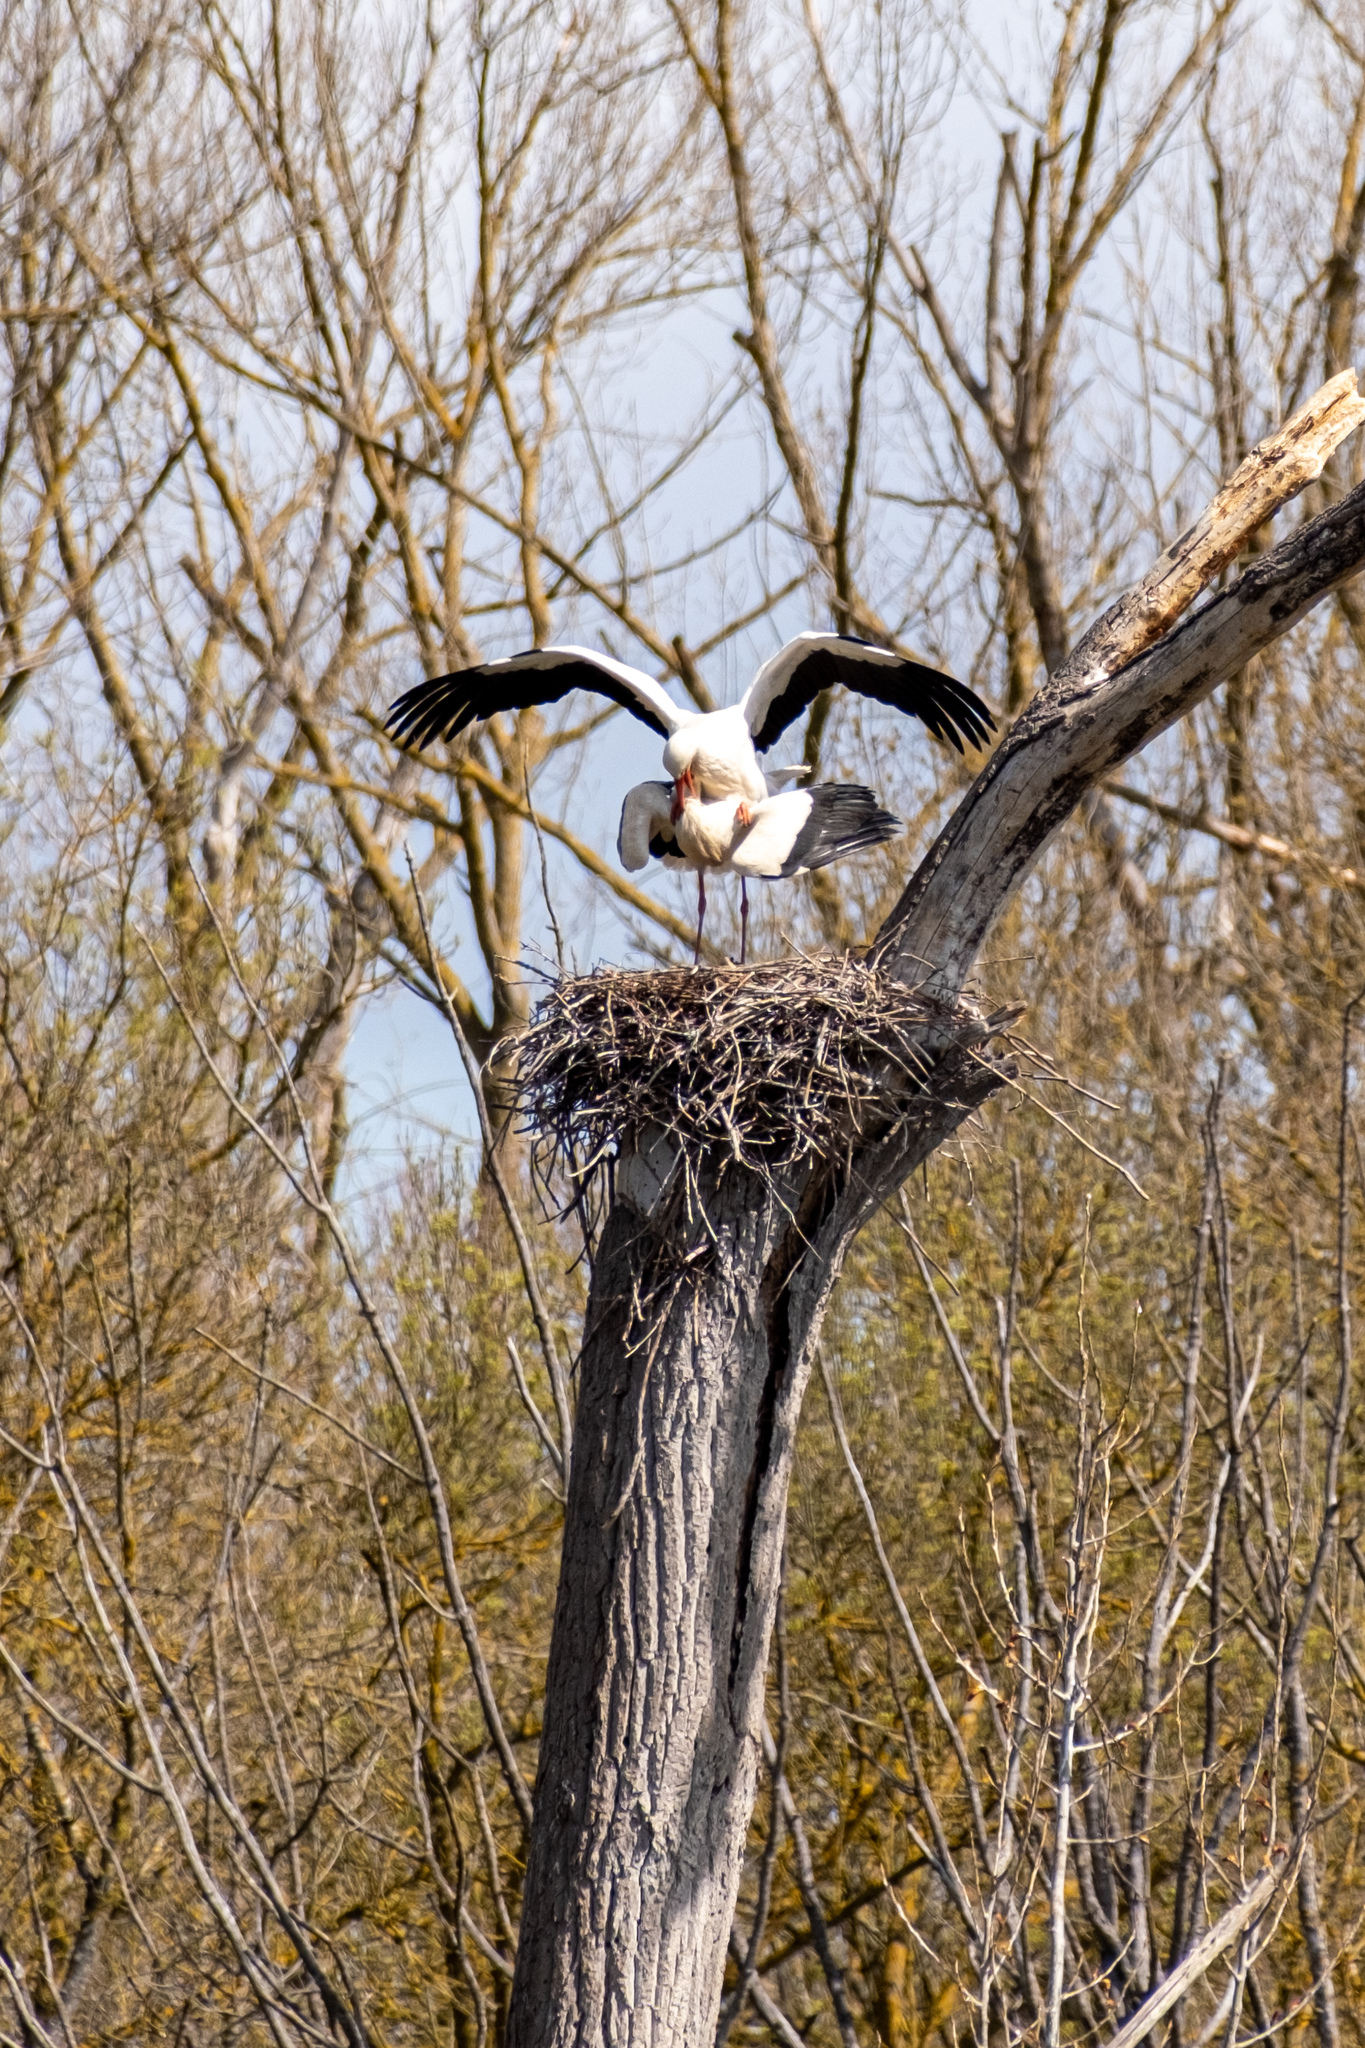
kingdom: Animalia
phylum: Chordata
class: Aves
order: Ciconiiformes
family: Ciconiidae
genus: Ciconia
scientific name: Ciconia ciconia
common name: White stork
